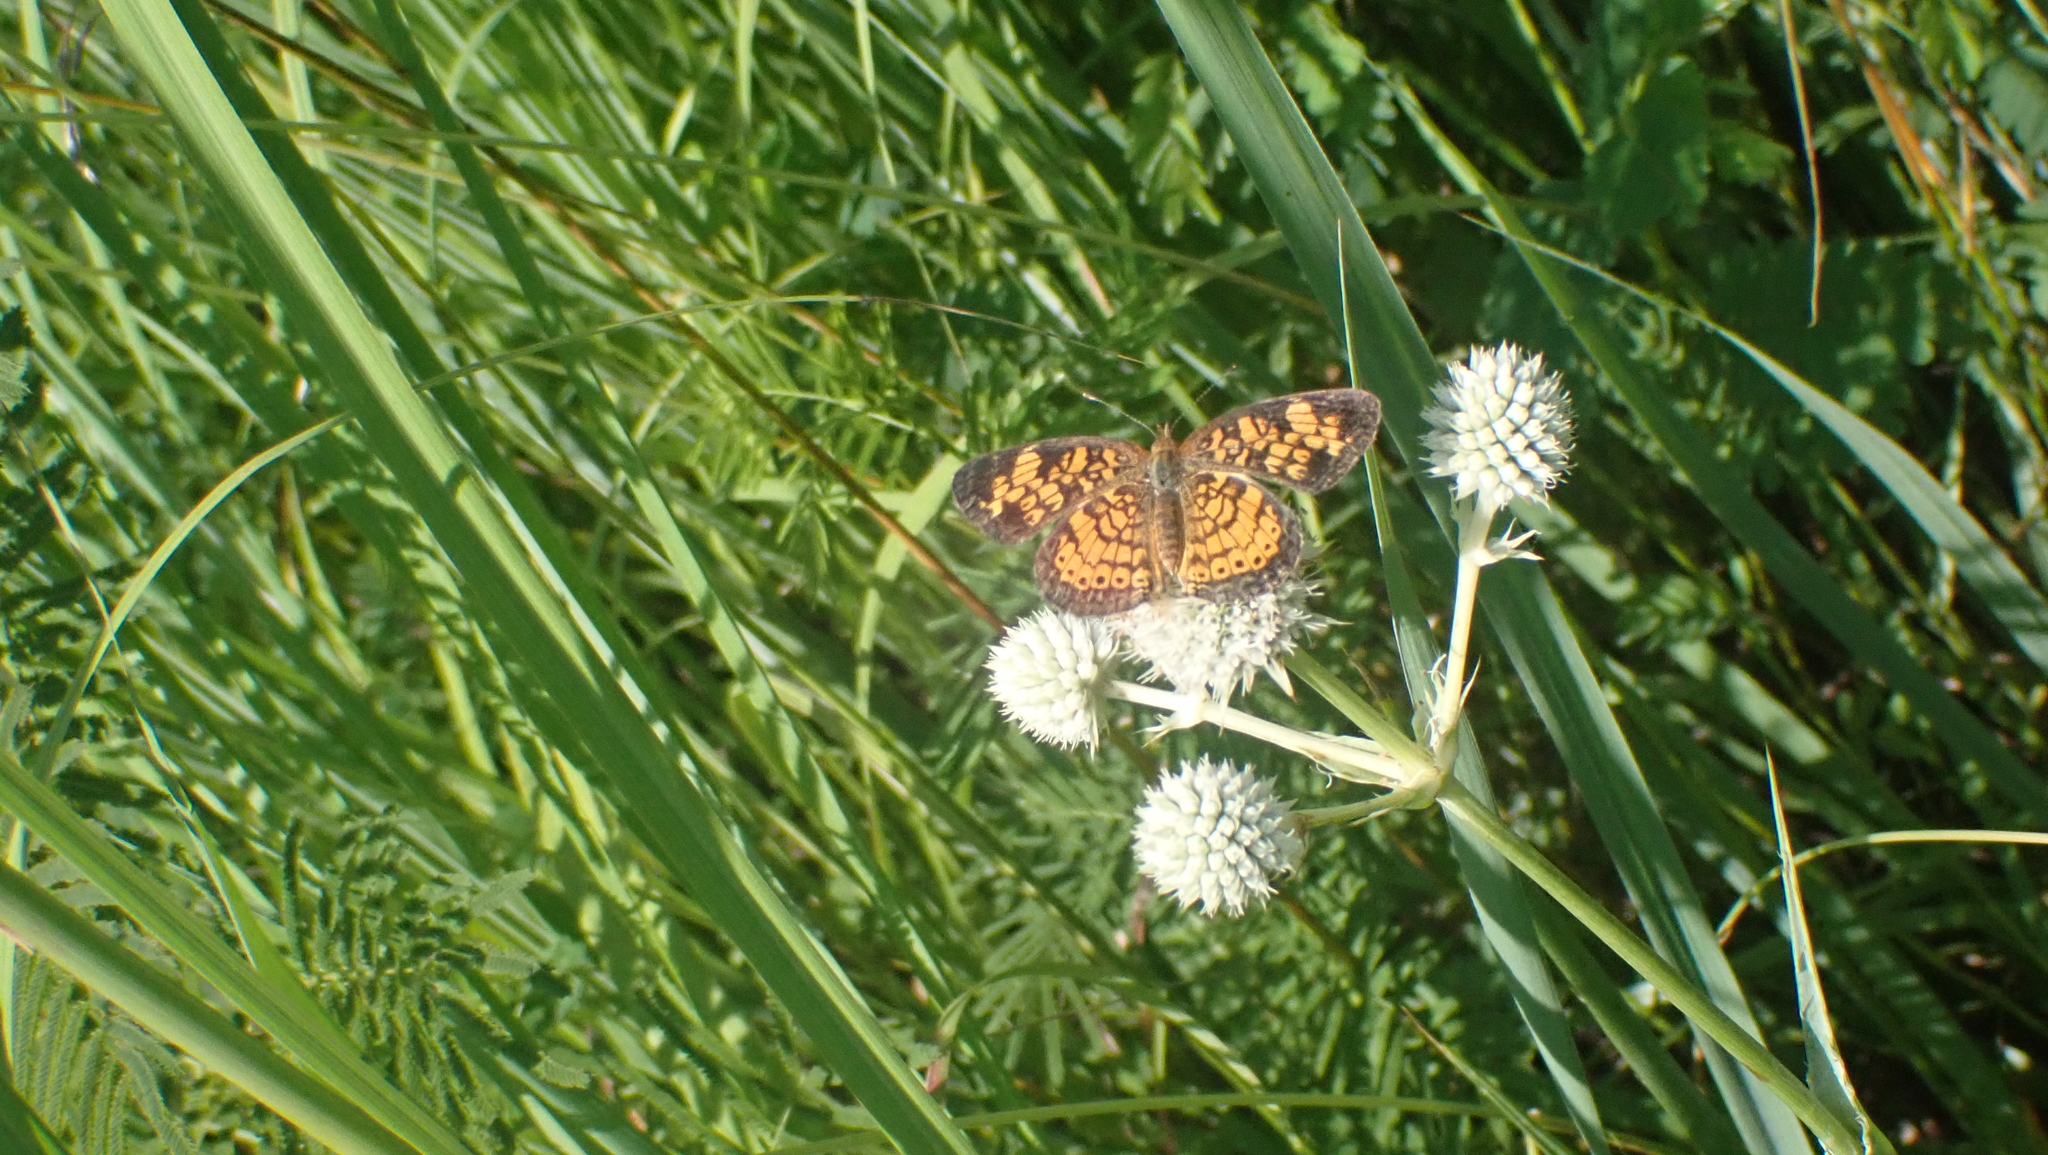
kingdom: Animalia
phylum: Arthropoda
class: Insecta
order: Lepidoptera
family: Nymphalidae
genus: Phyciodes
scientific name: Phyciodes tharos
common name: Pearl crescent
